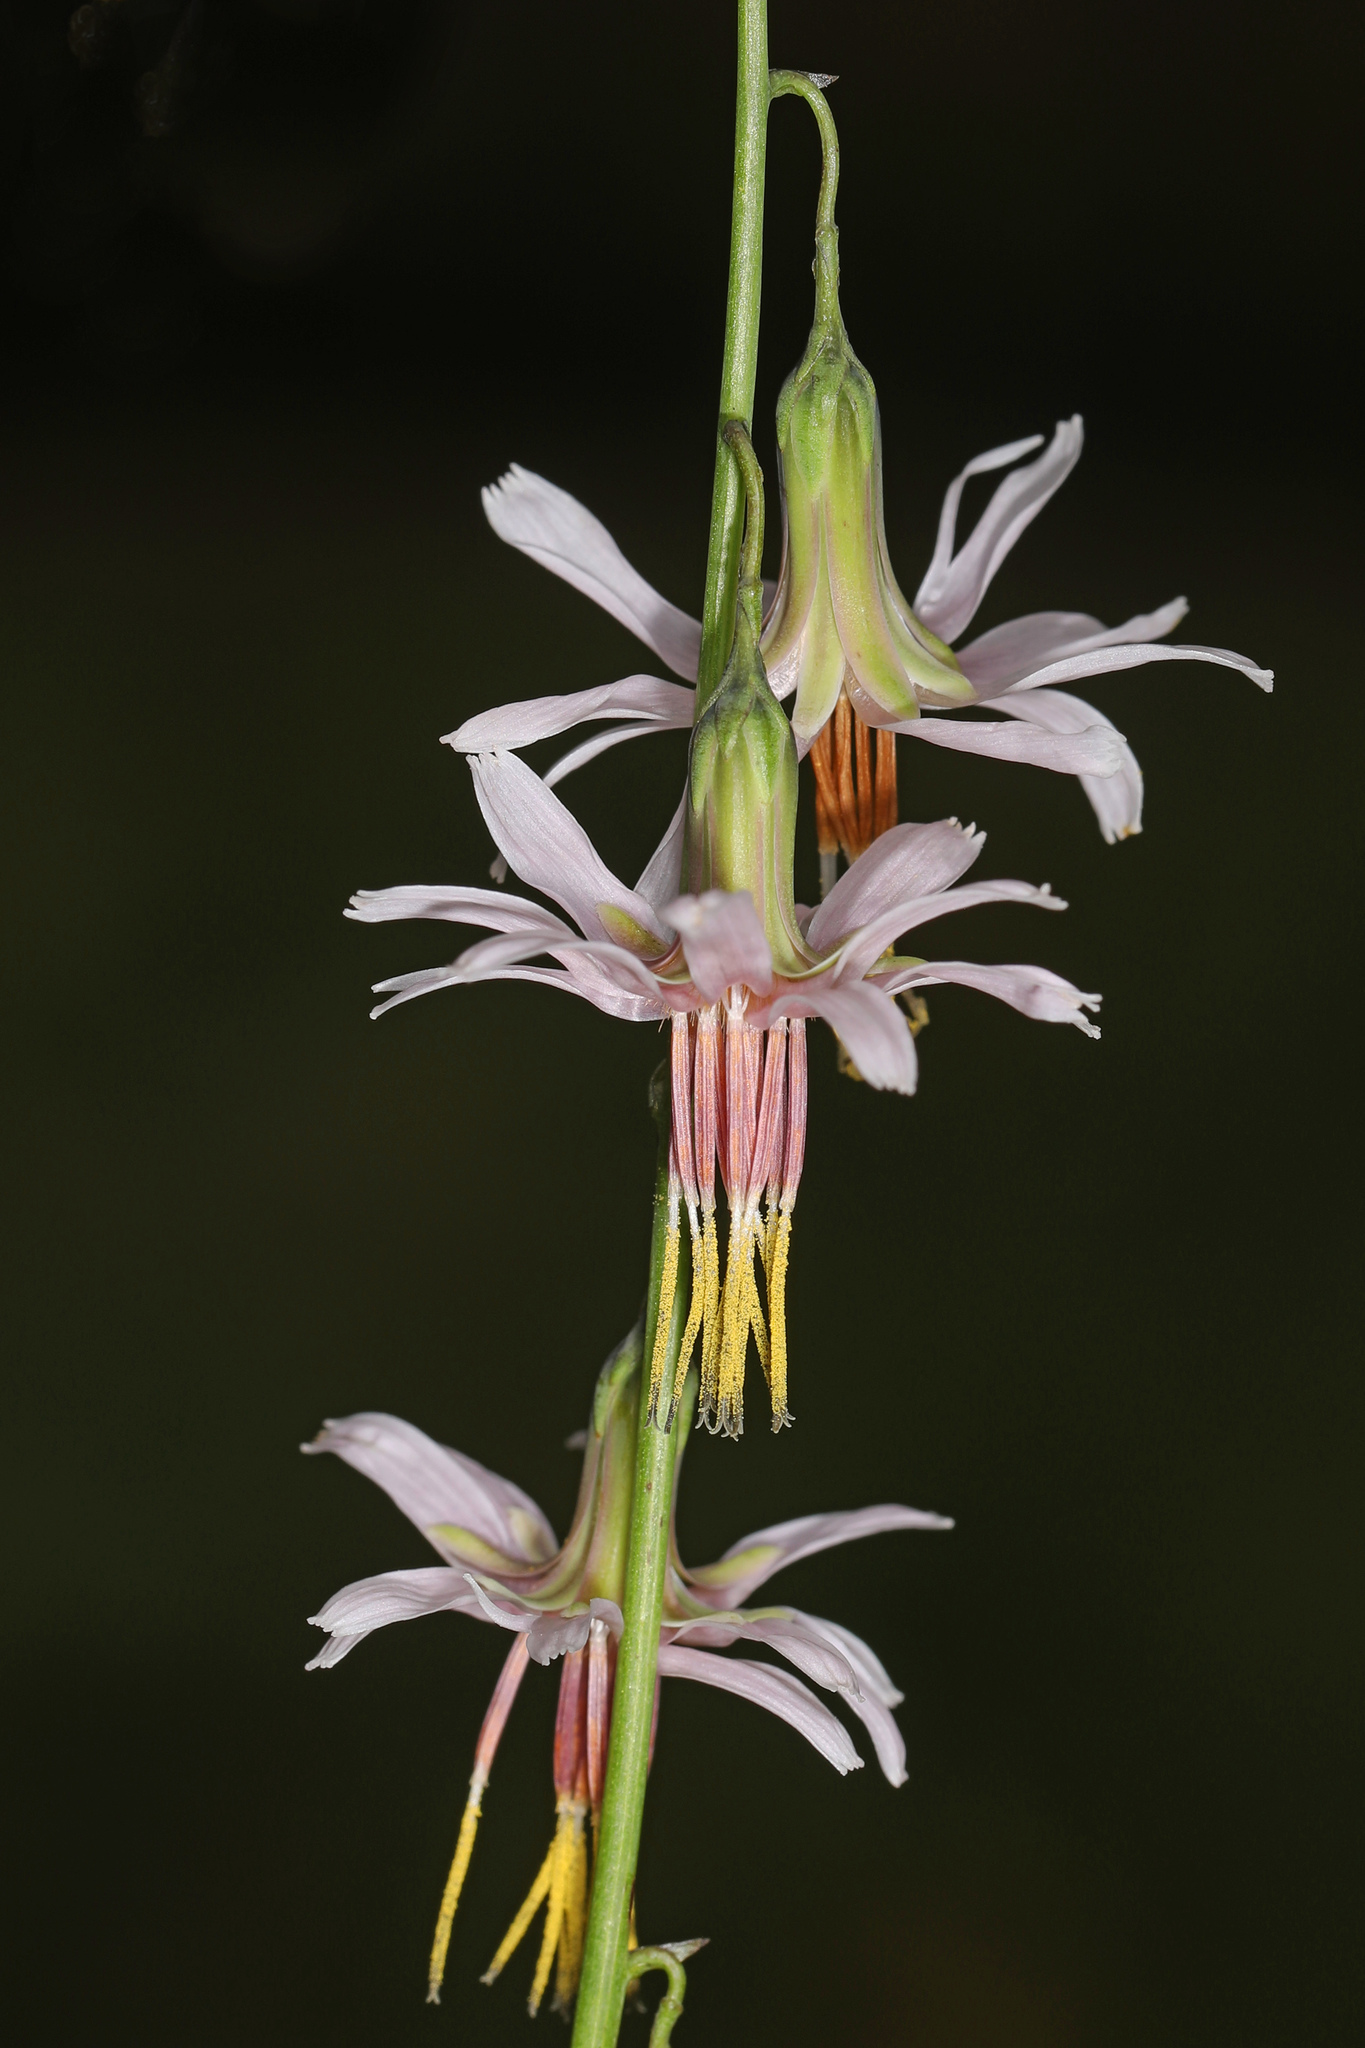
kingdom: Plantae
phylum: Tracheophyta
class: Magnoliopsida
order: Asterales
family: Asteraceae
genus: Nabalus
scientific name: Nabalus autumnalis
